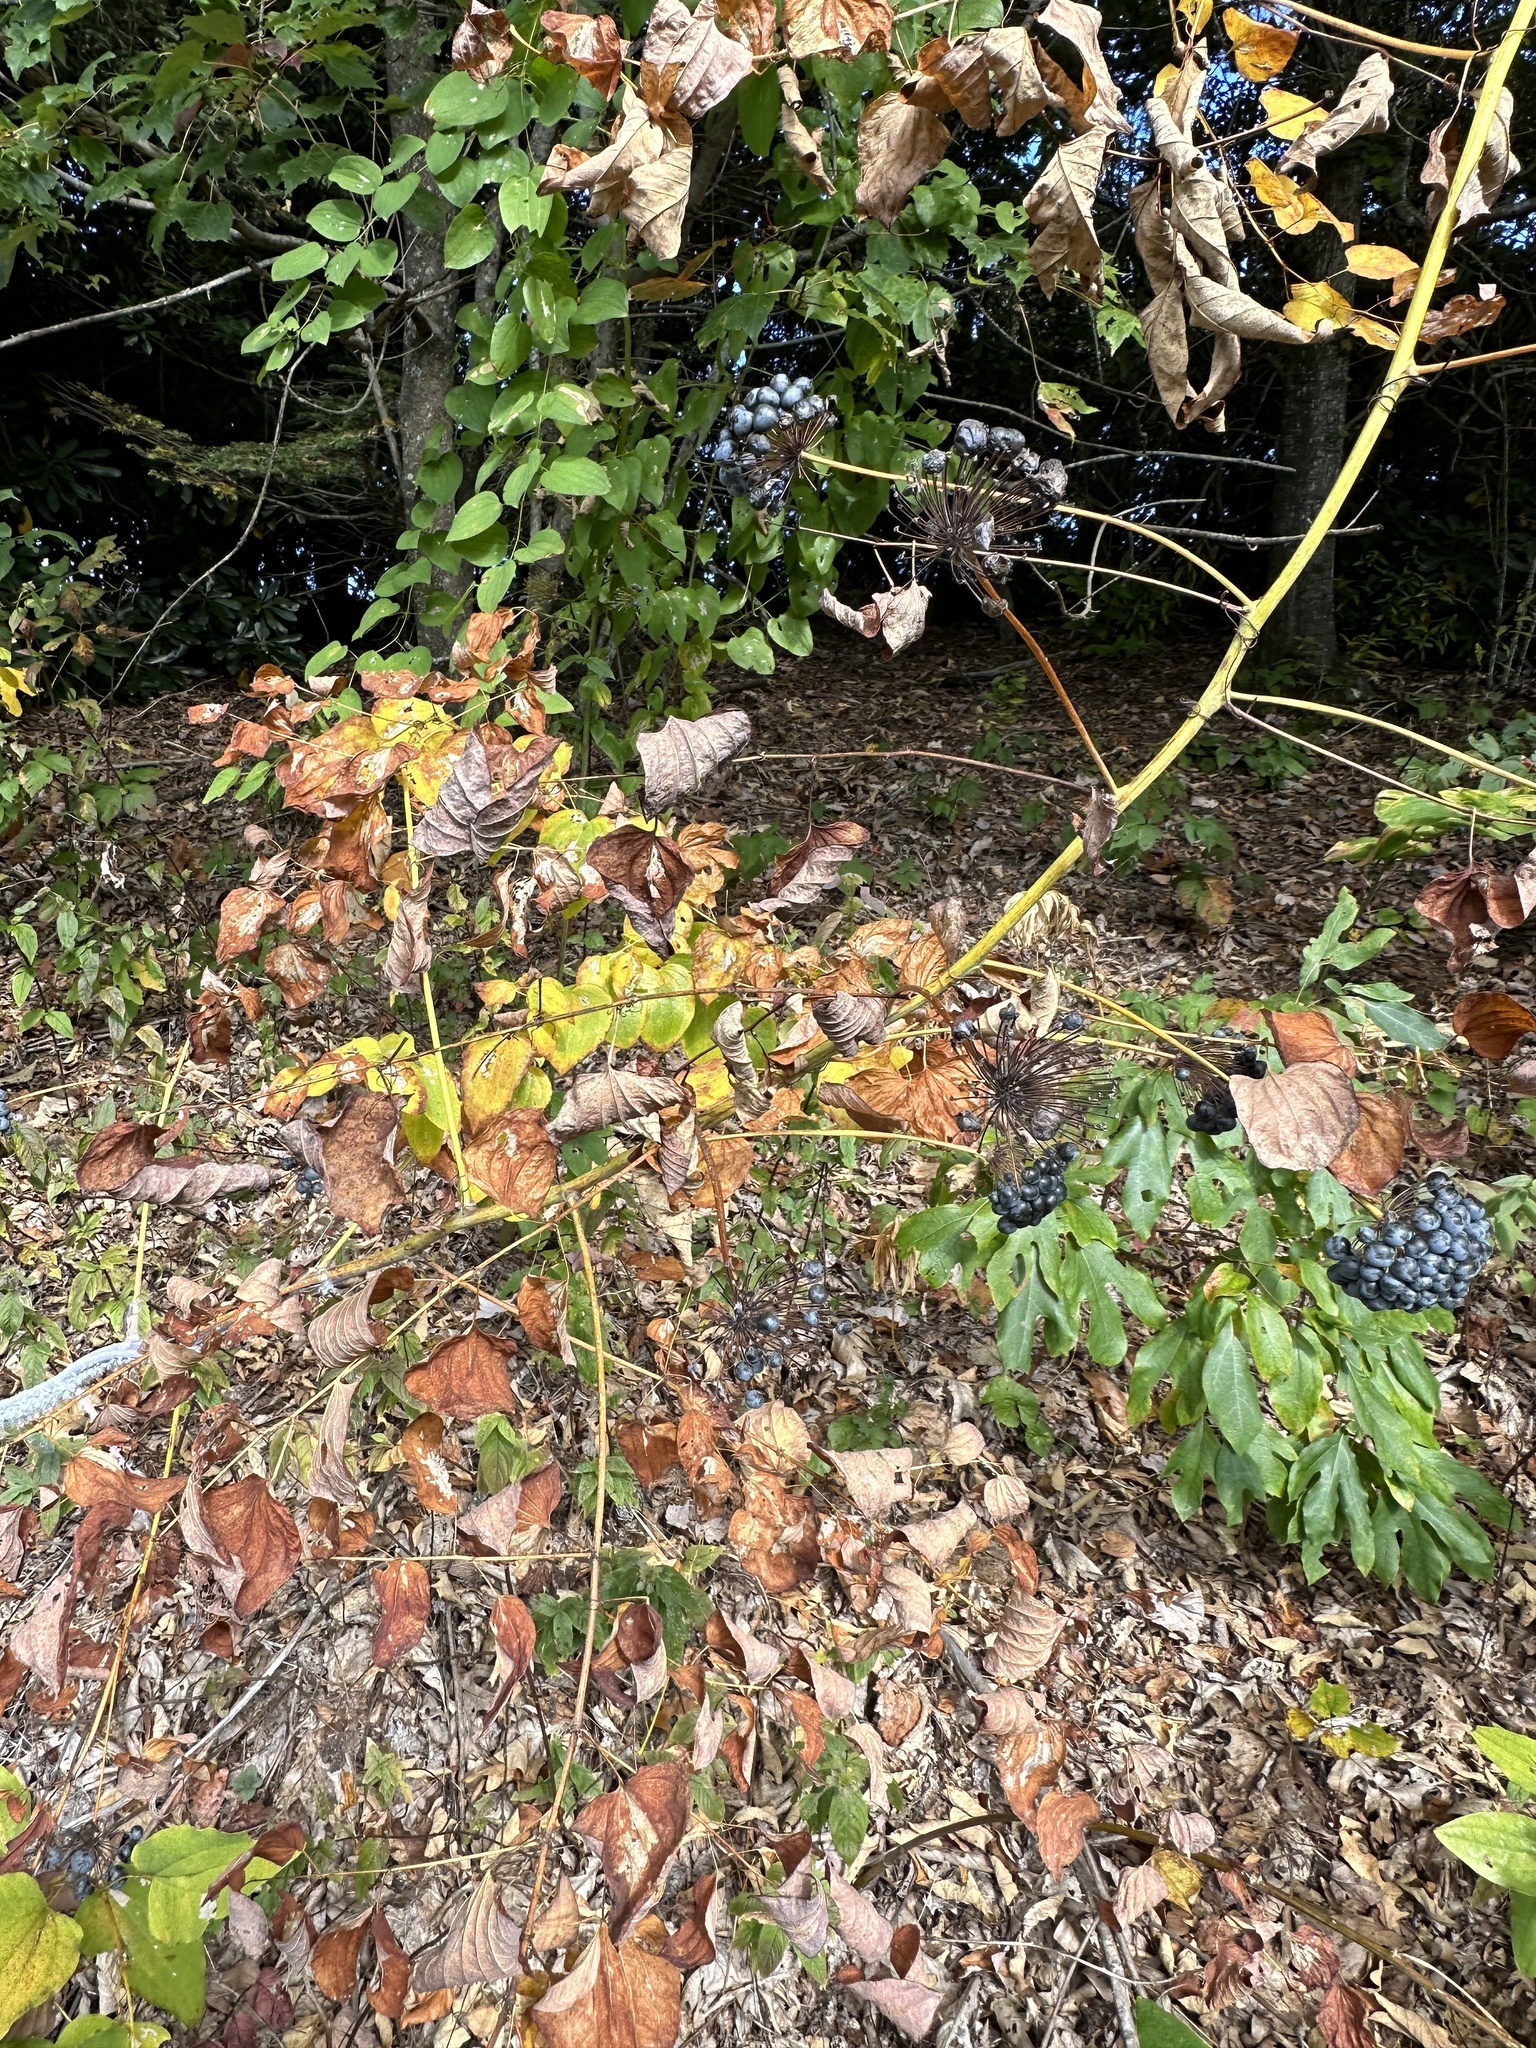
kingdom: Animalia
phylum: Arthropoda
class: Insecta
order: Hemiptera
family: Aphididae
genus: Neoprociphilus
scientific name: Neoprociphilus aceris
